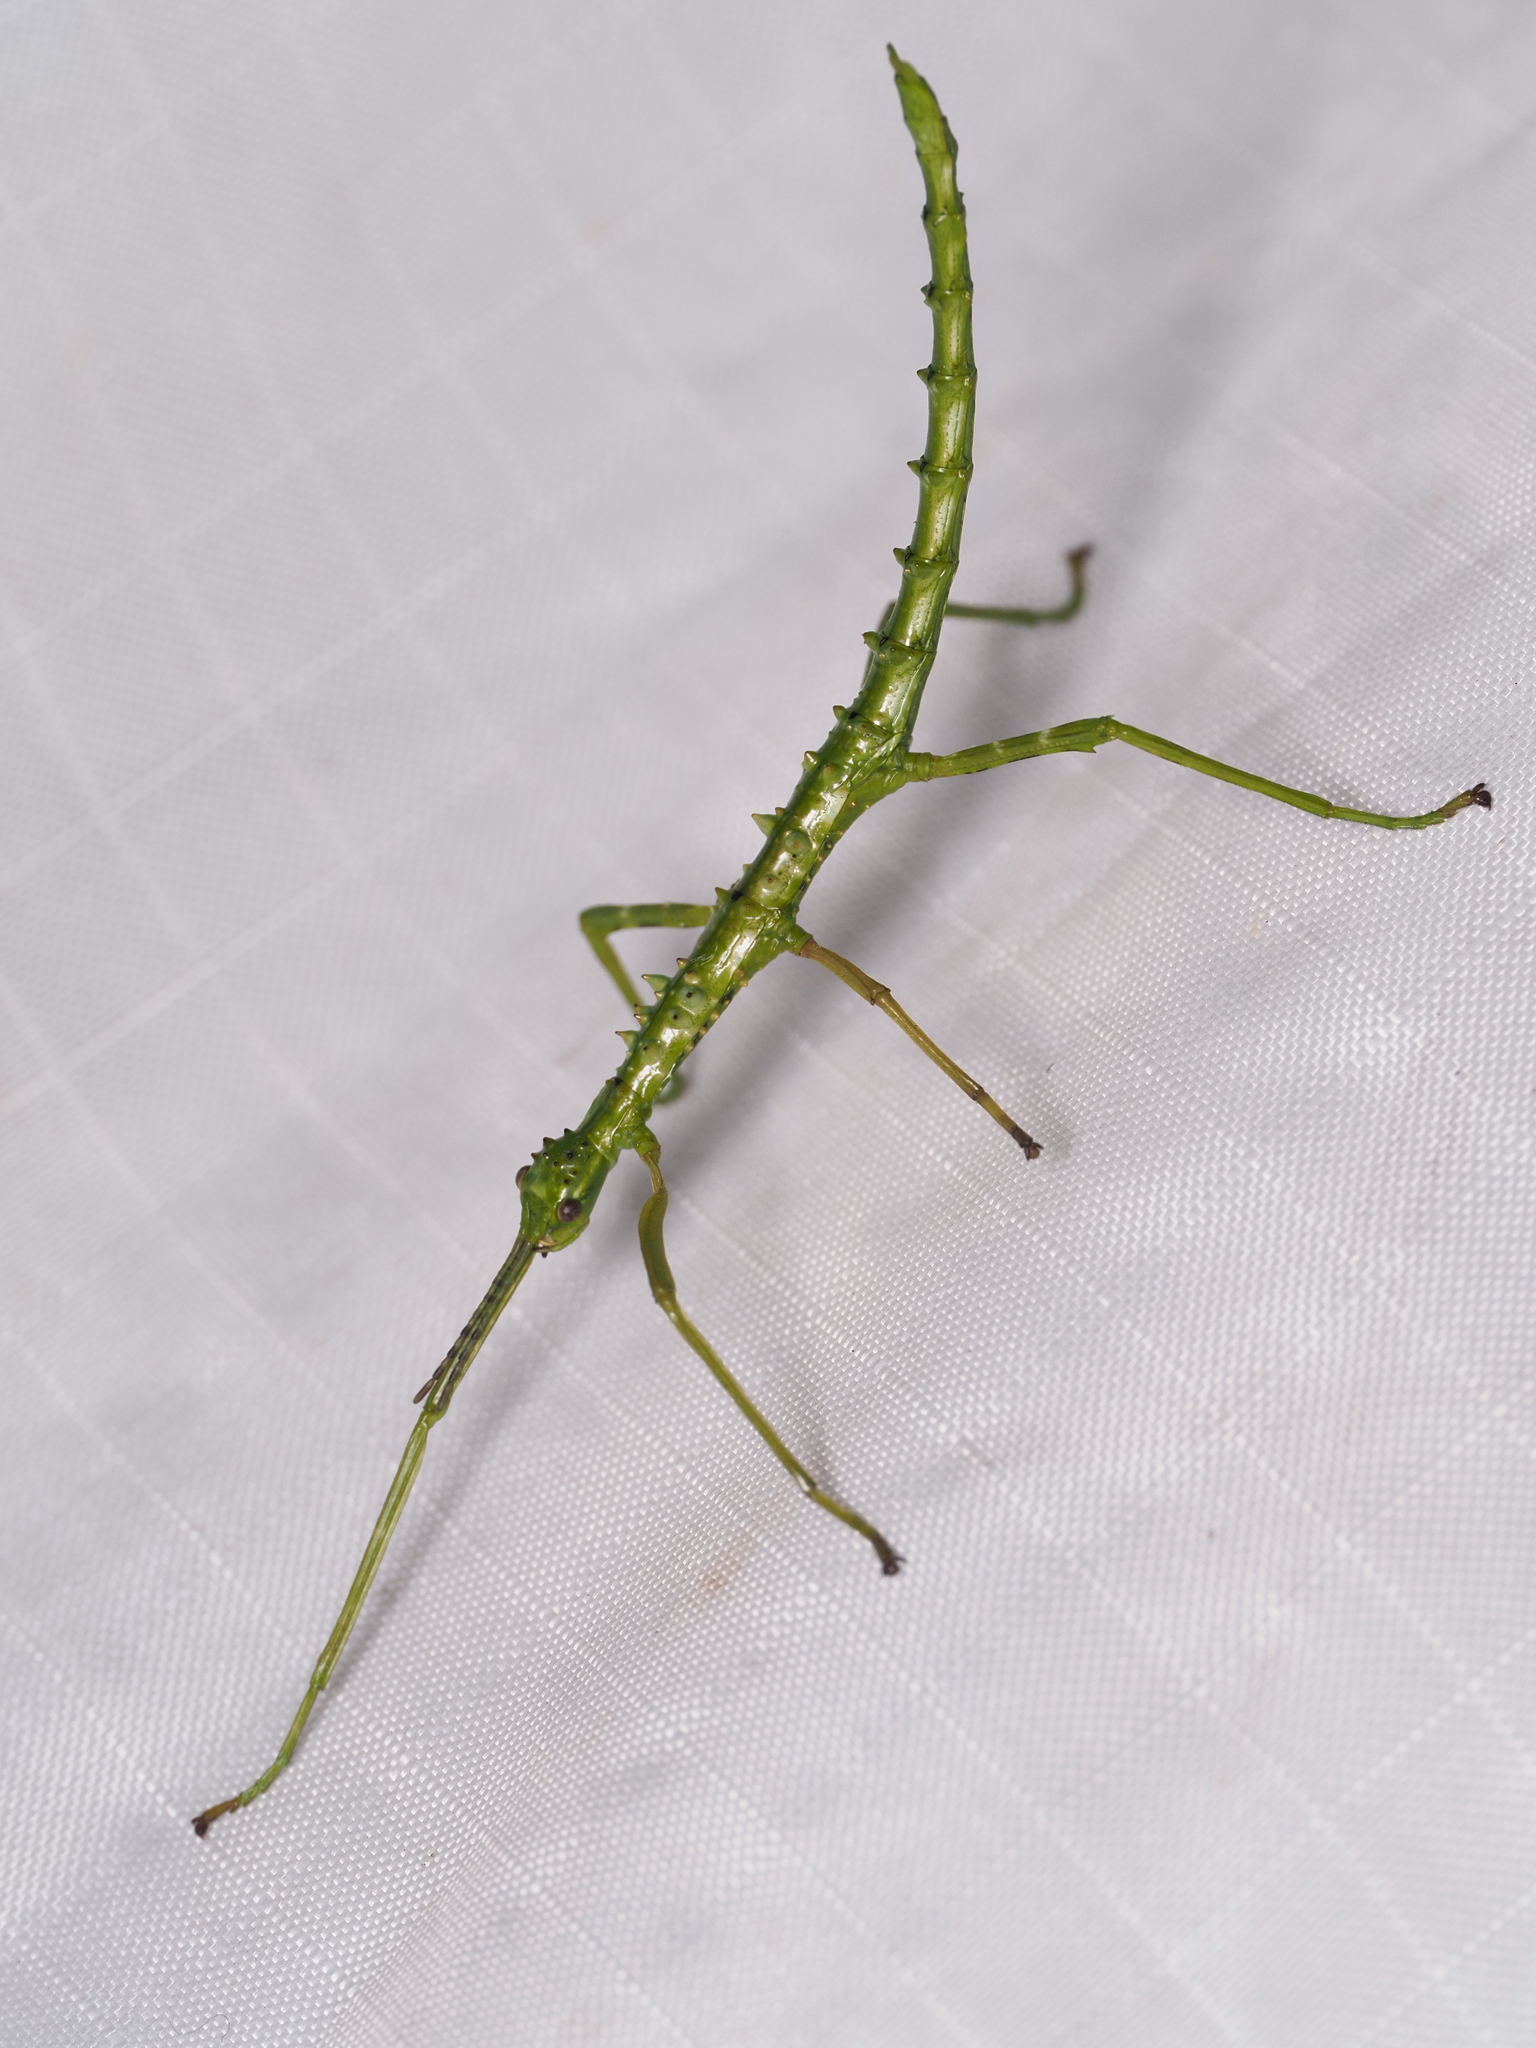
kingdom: Animalia
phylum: Arthropoda
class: Insecta
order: Phasmida
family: Phasmatidae
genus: Acanthoxyla
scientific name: Acanthoxyla prasina
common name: Black-spined stick insect
